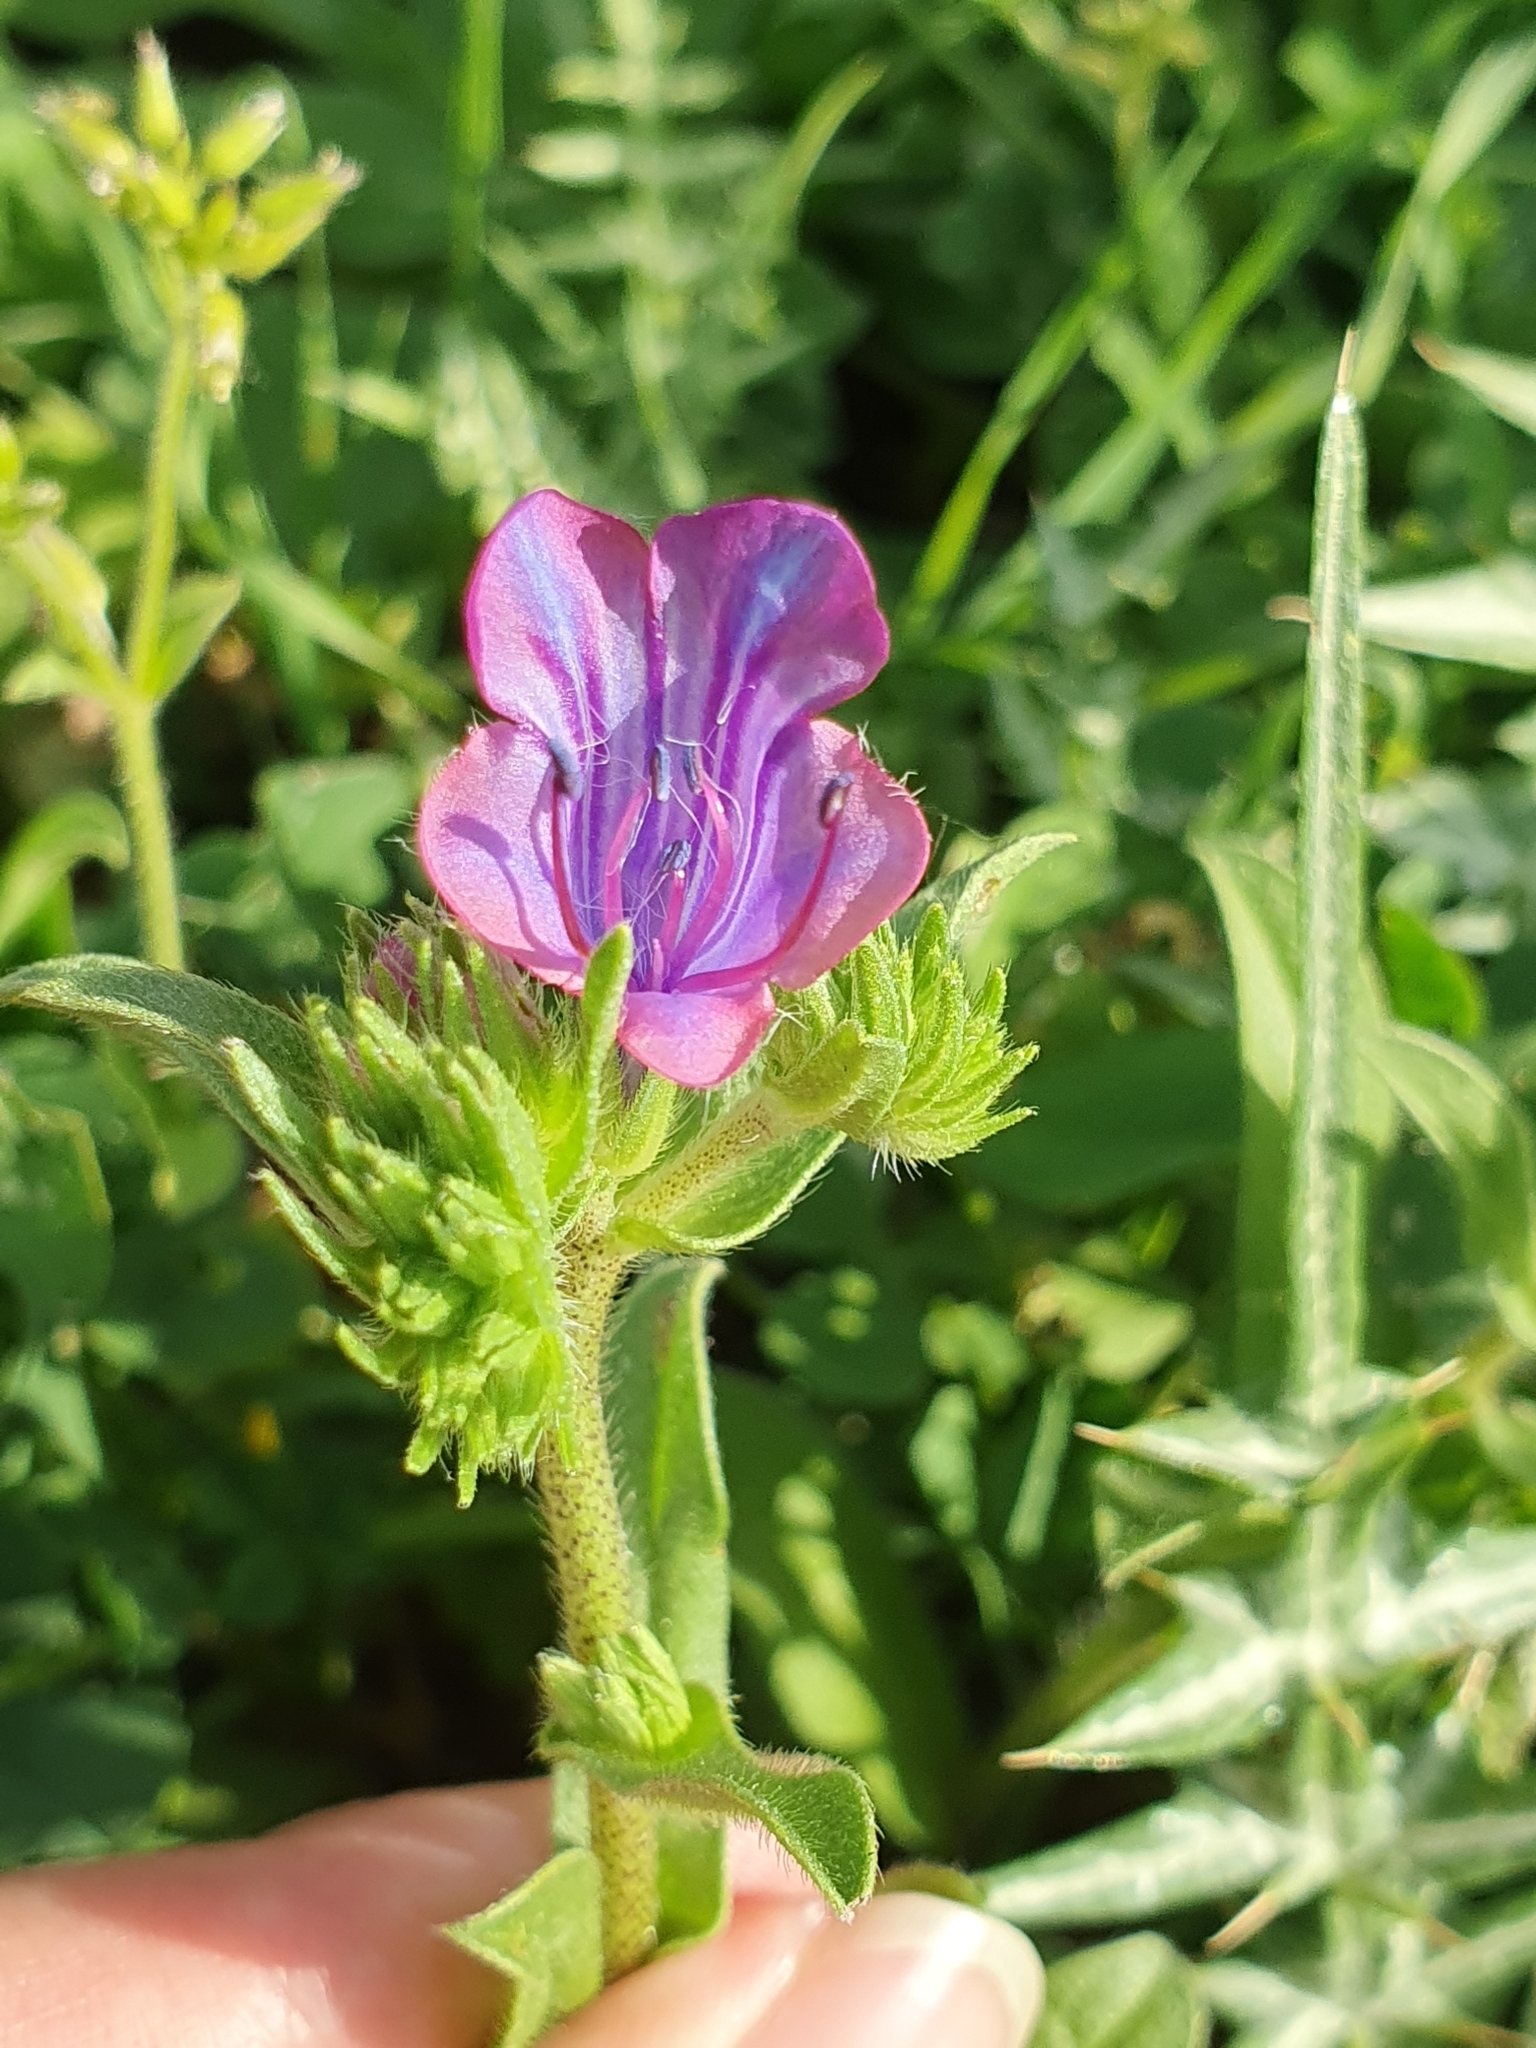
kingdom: Plantae
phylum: Tracheophyta
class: Magnoliopsida
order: Boraginales
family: Boraginaceae
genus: Echium
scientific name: Echium plantagineum
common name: Purple viper's-bugloss
